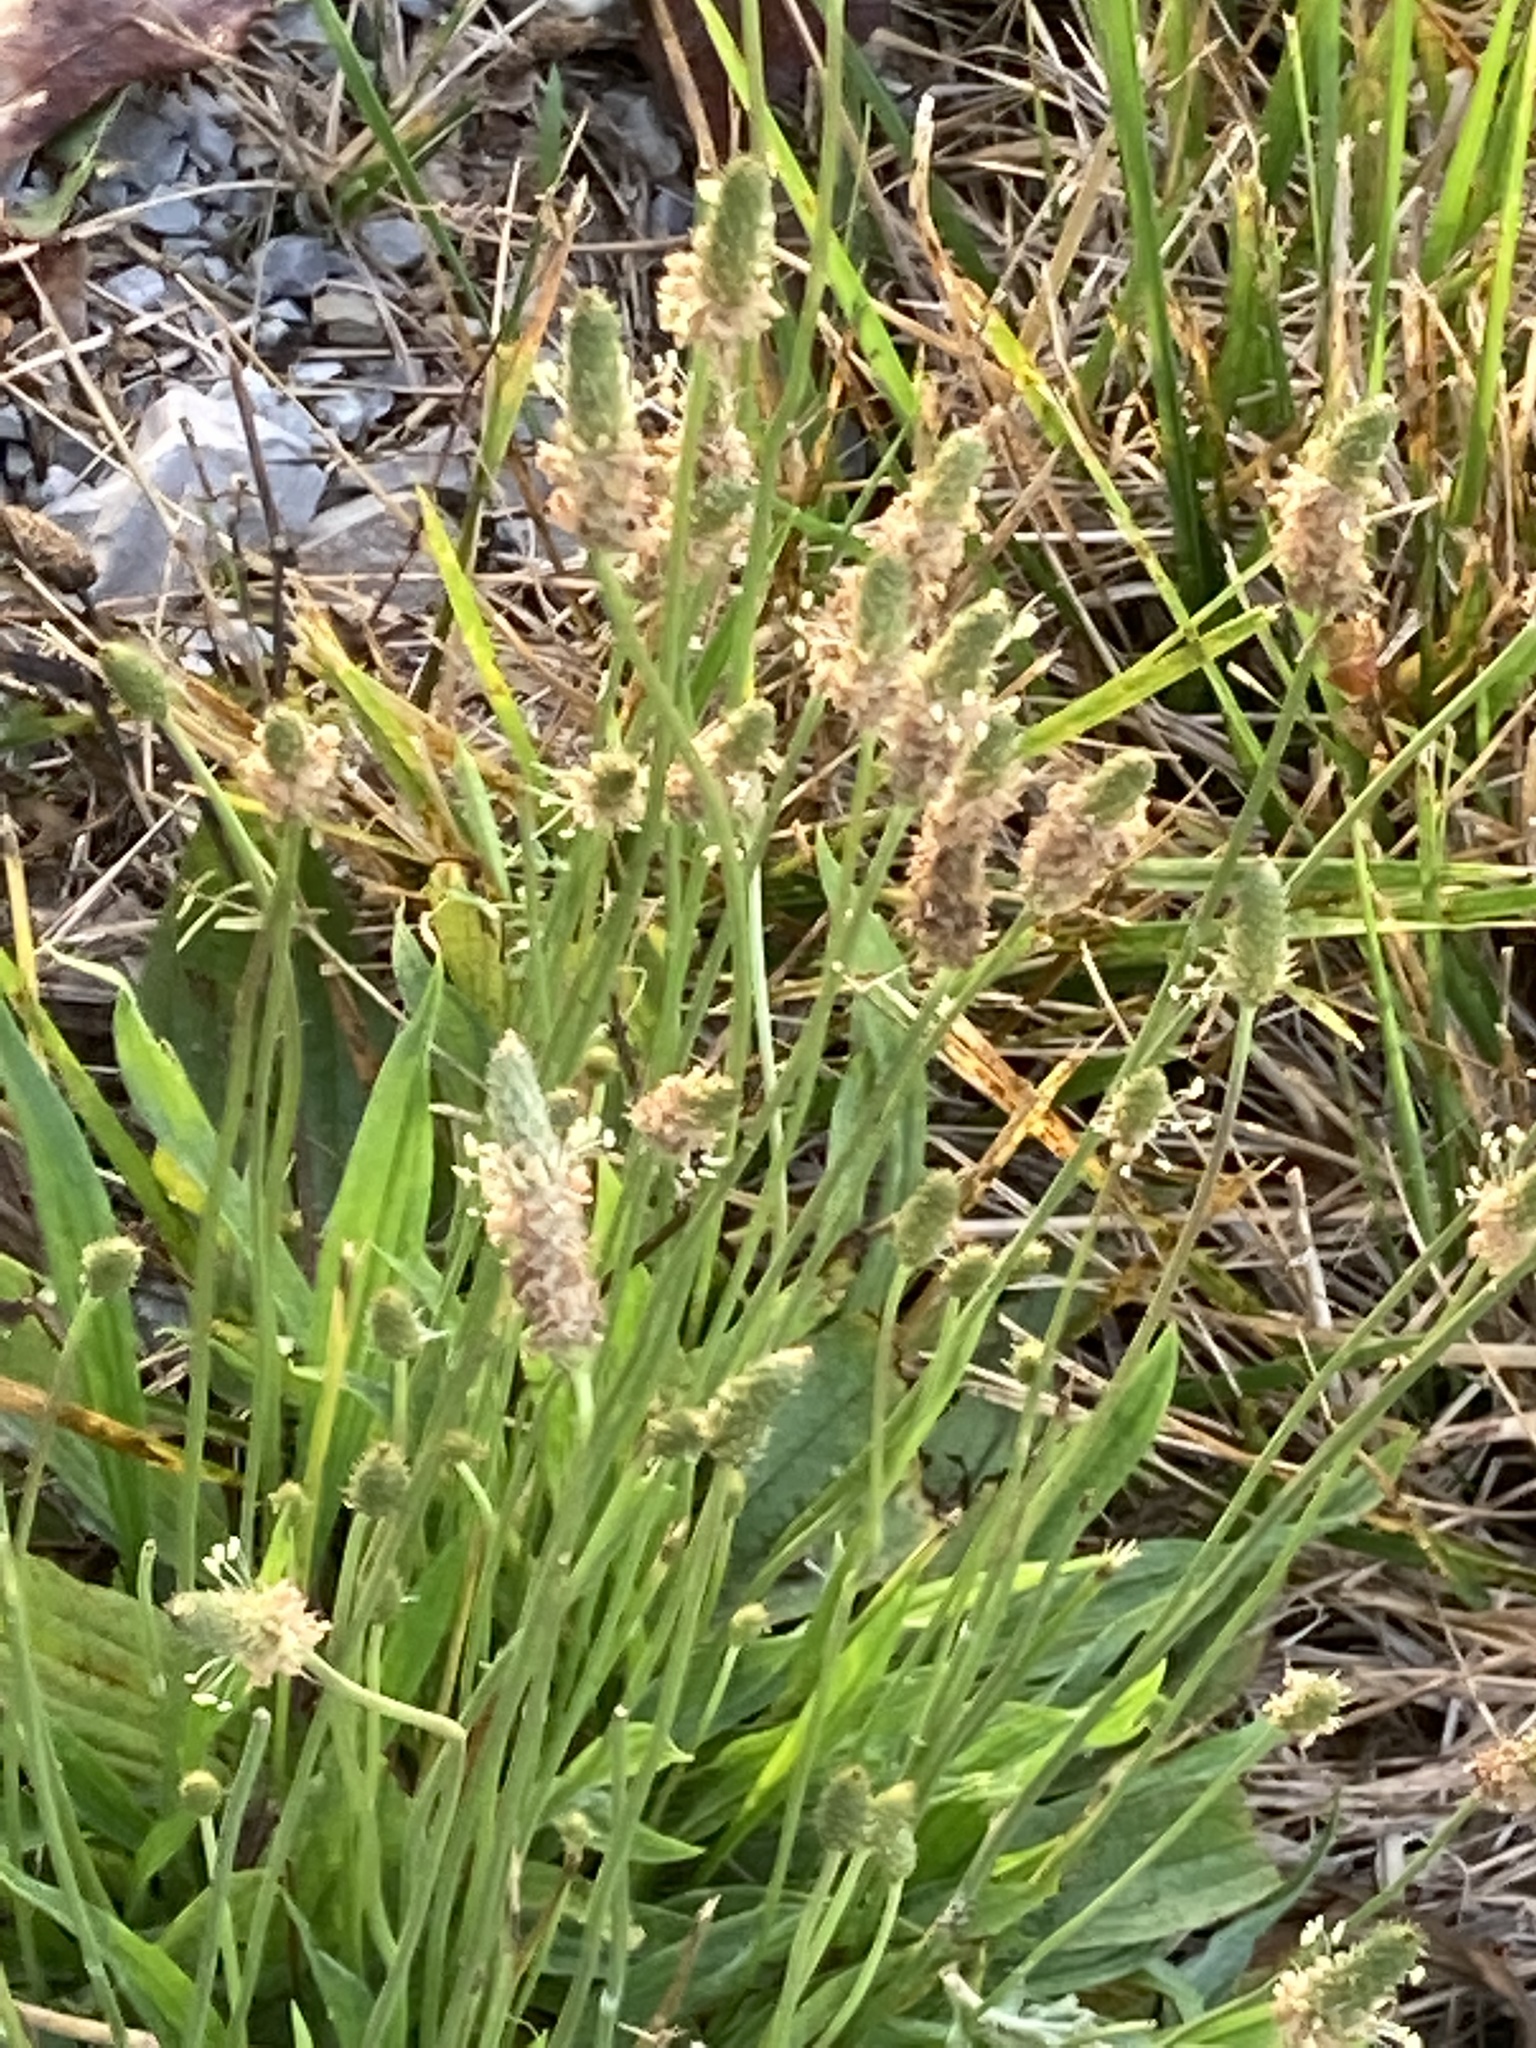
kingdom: Plantae
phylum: Tracheophyta
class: Magnoliopsida
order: Lamiales
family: Plantaginaceae
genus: Plantago
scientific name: Plantago lanceolata
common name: Ribwort plantain
